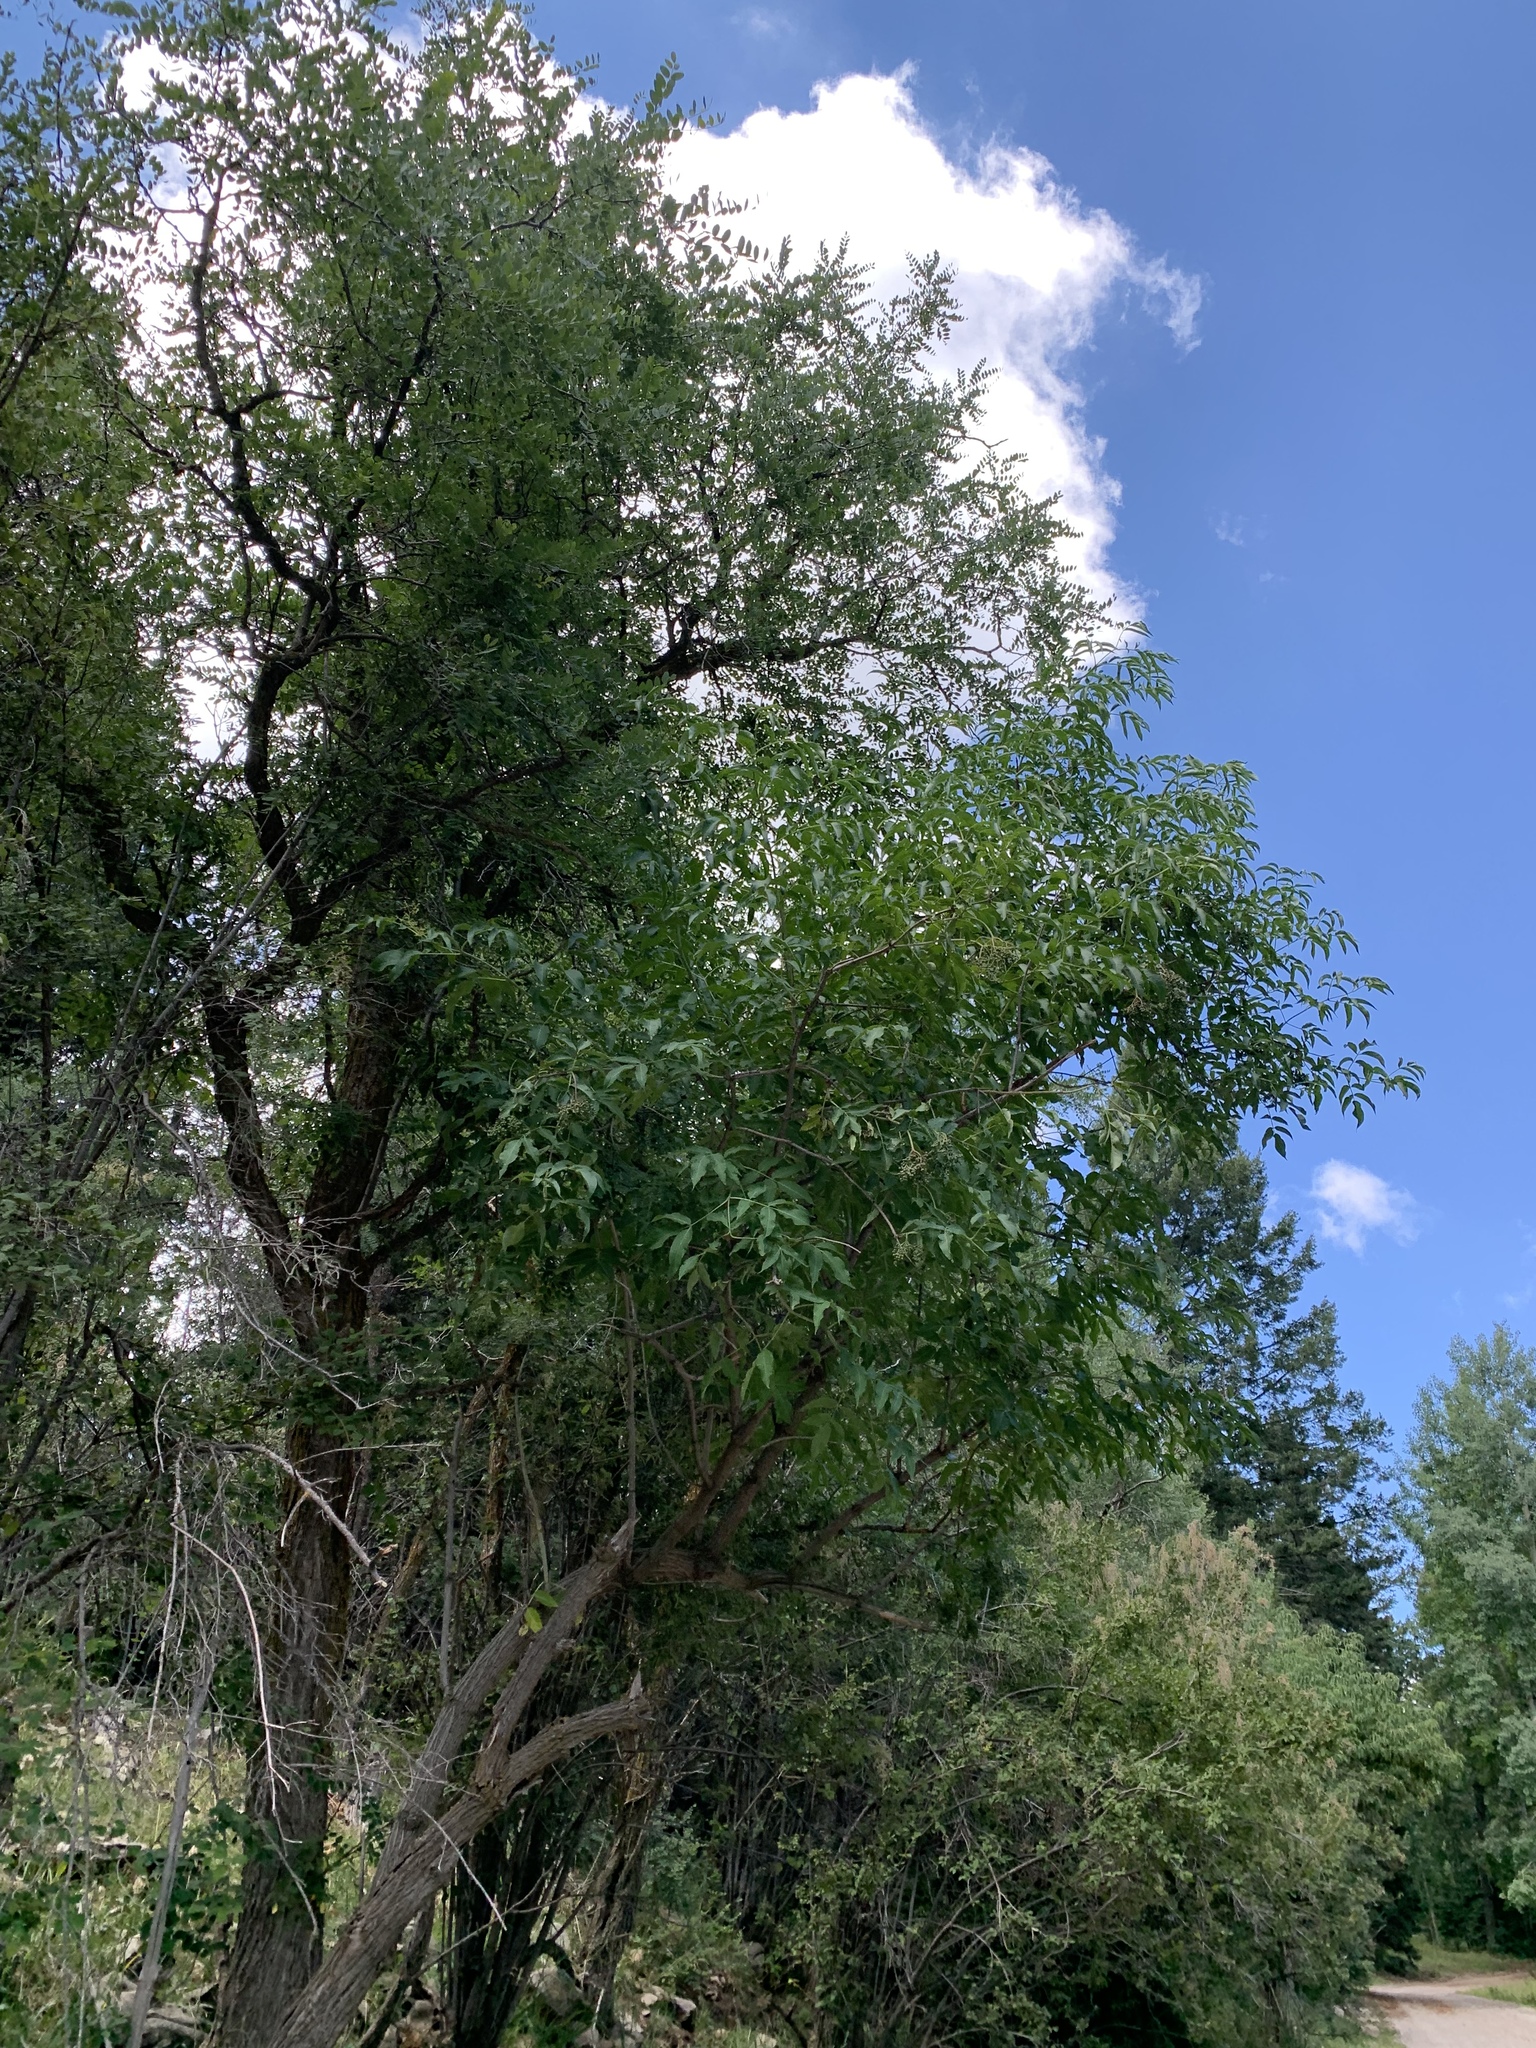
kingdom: Plantae
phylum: Tracheophyta
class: Magnoliopsida
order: Dipsacales
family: Viburnaceae
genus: Sambucus
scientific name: Sambucus cerulea
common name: Blue elder
